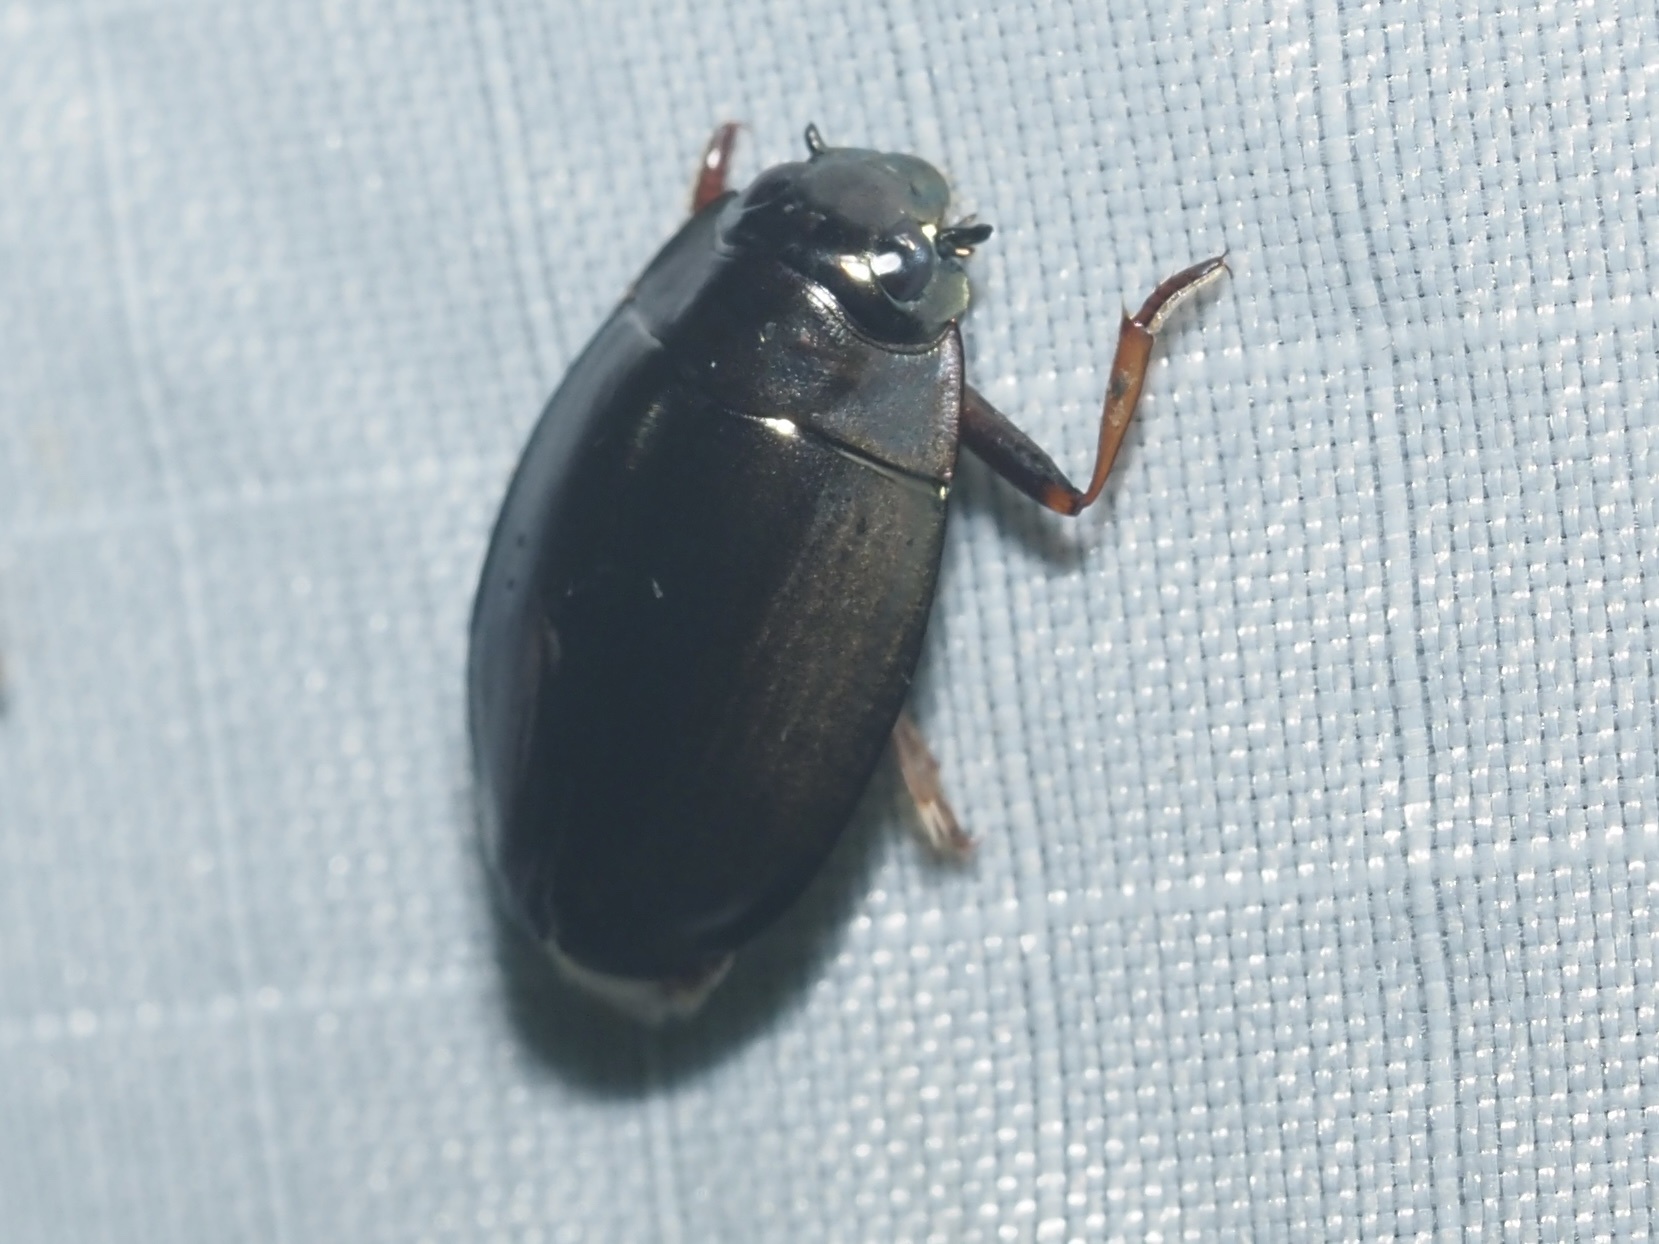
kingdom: Animalia
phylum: Arthropoda
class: Insecta
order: Coleoptera
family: Gyrinidae
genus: Dineutus
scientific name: Dineutus
